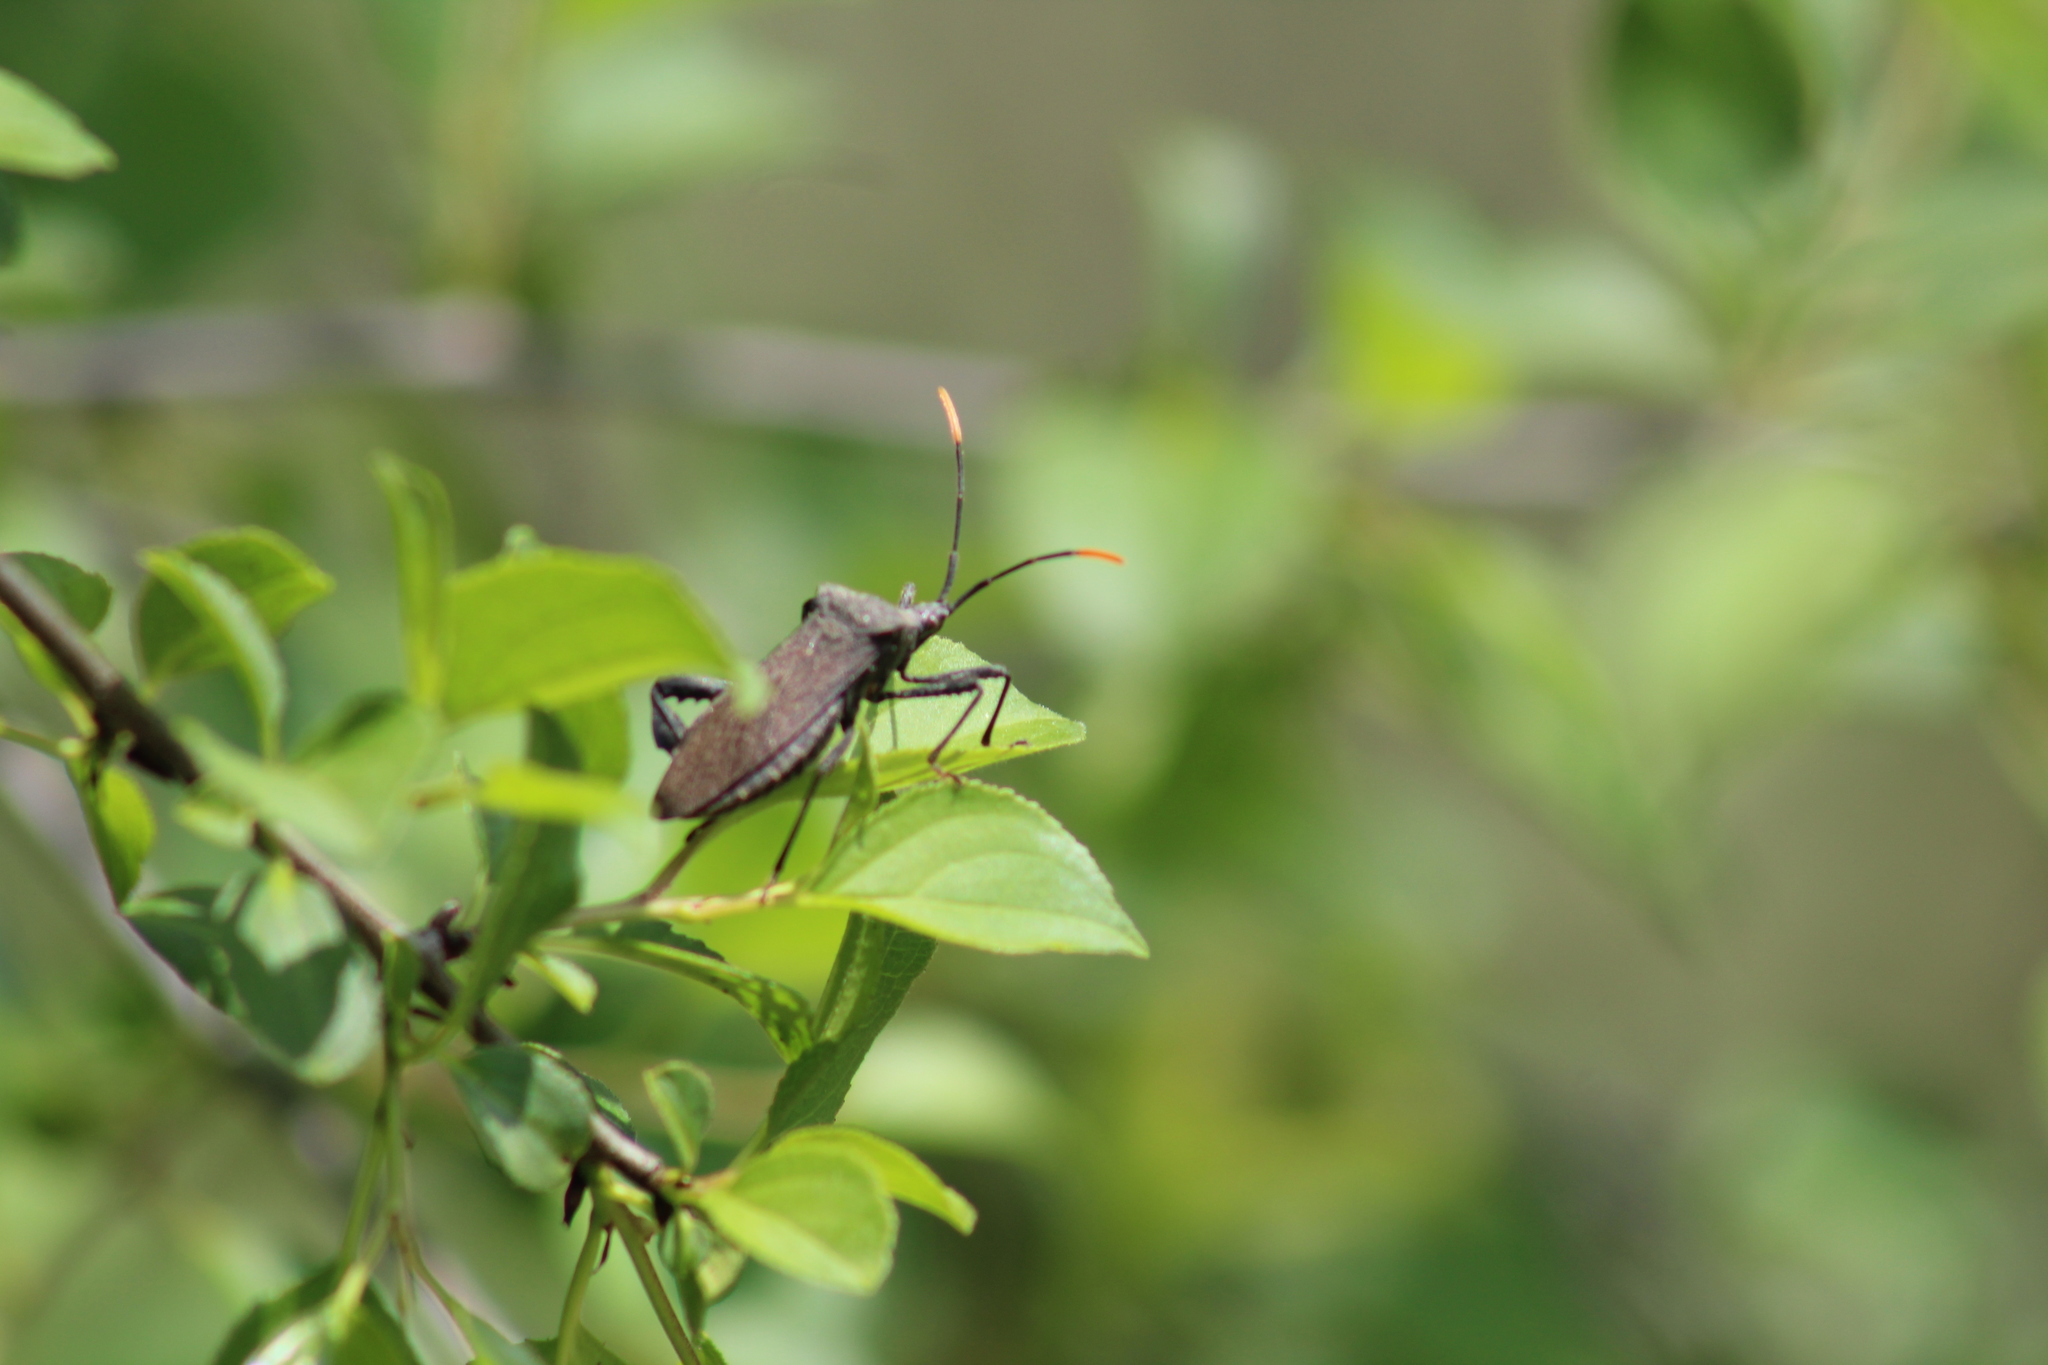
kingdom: Animalia
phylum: Arthropoda
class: Insecta
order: Hemiptera
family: Coreidae
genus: Acanthocephala
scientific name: Acanthocephala terminalis
